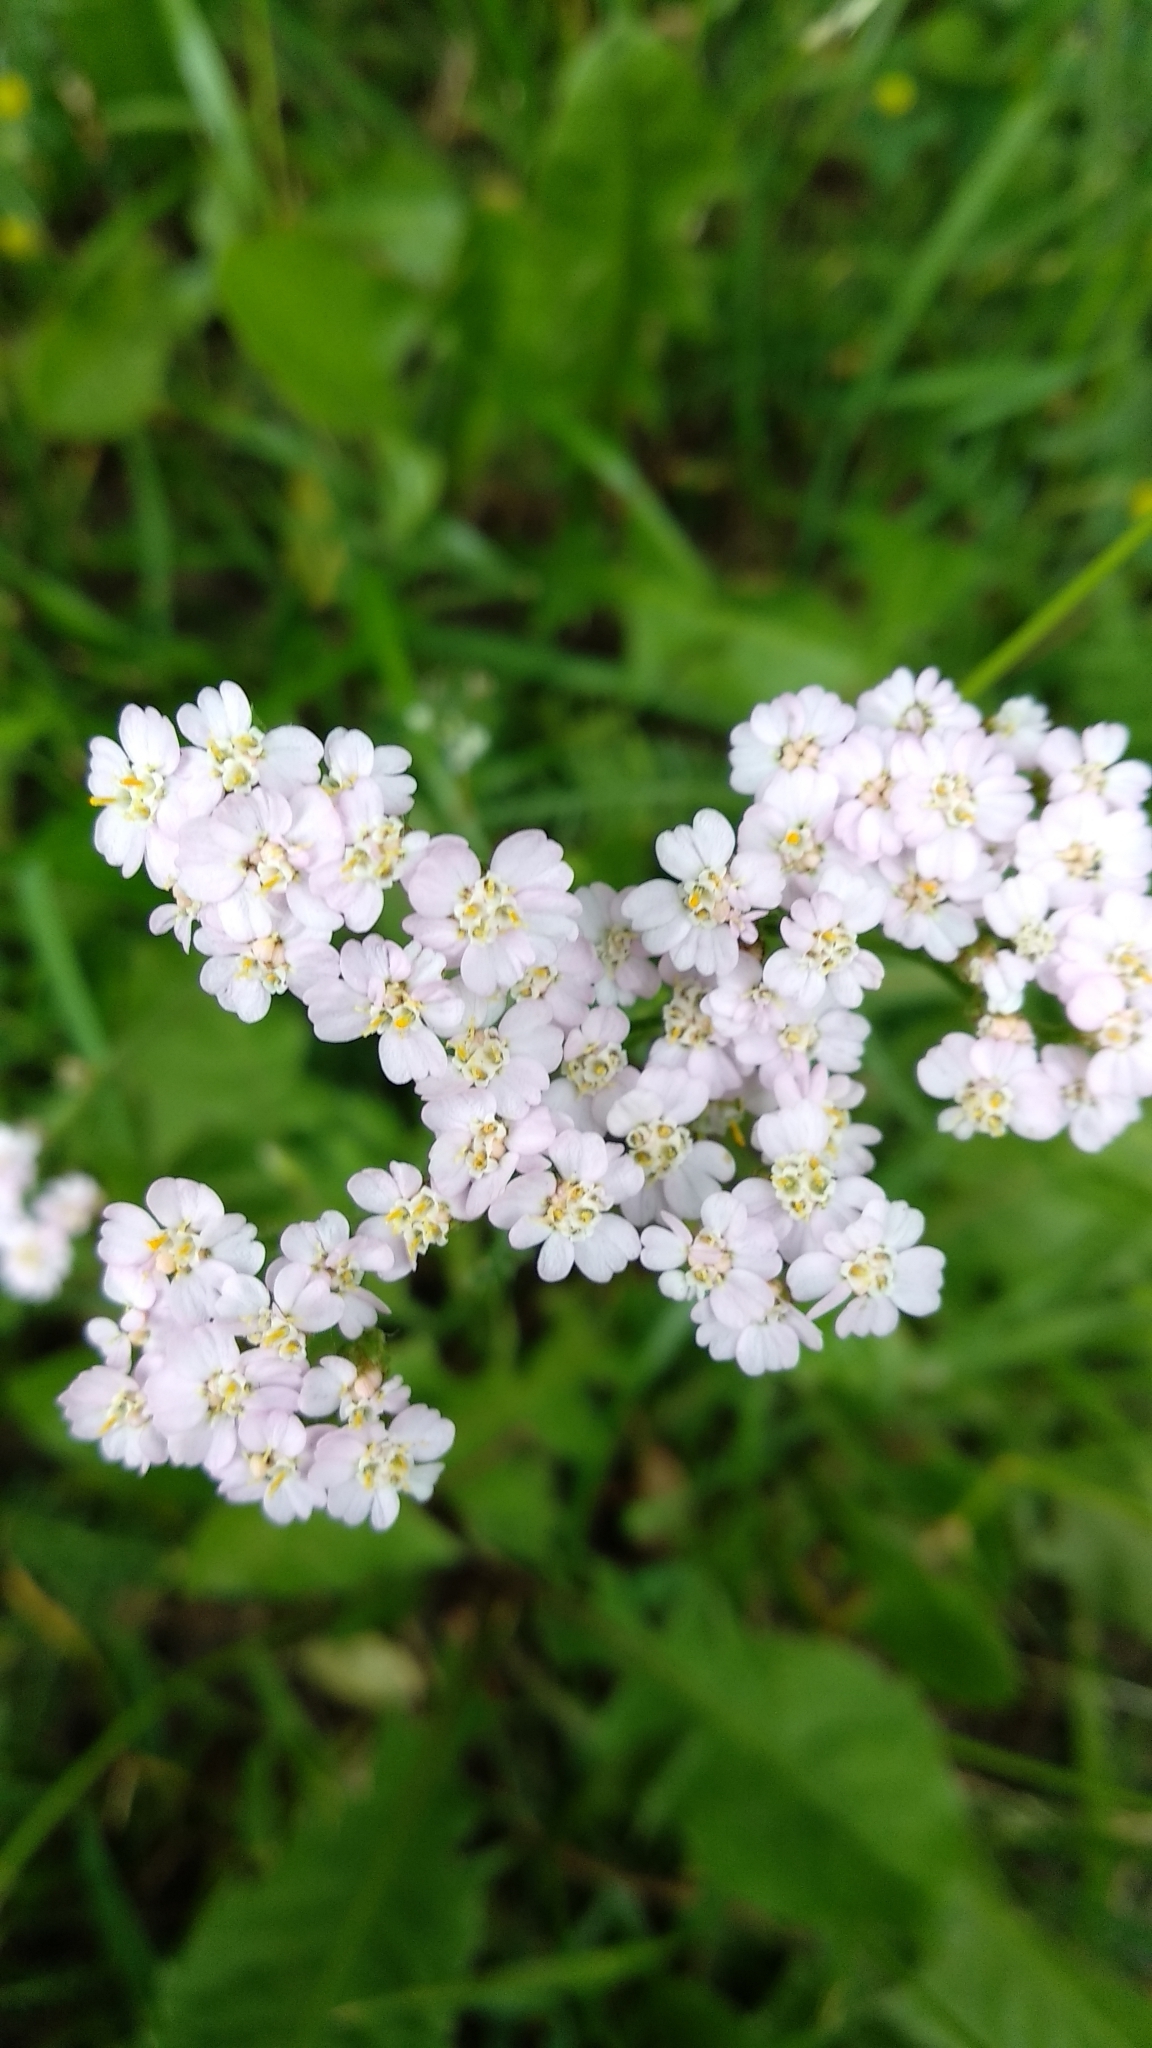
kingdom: Plantae
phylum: Tracheophyta
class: Magnoliopsida
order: Asterales
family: Asteraceae
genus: Achillea
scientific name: Achillea millefolium
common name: Yarrow
